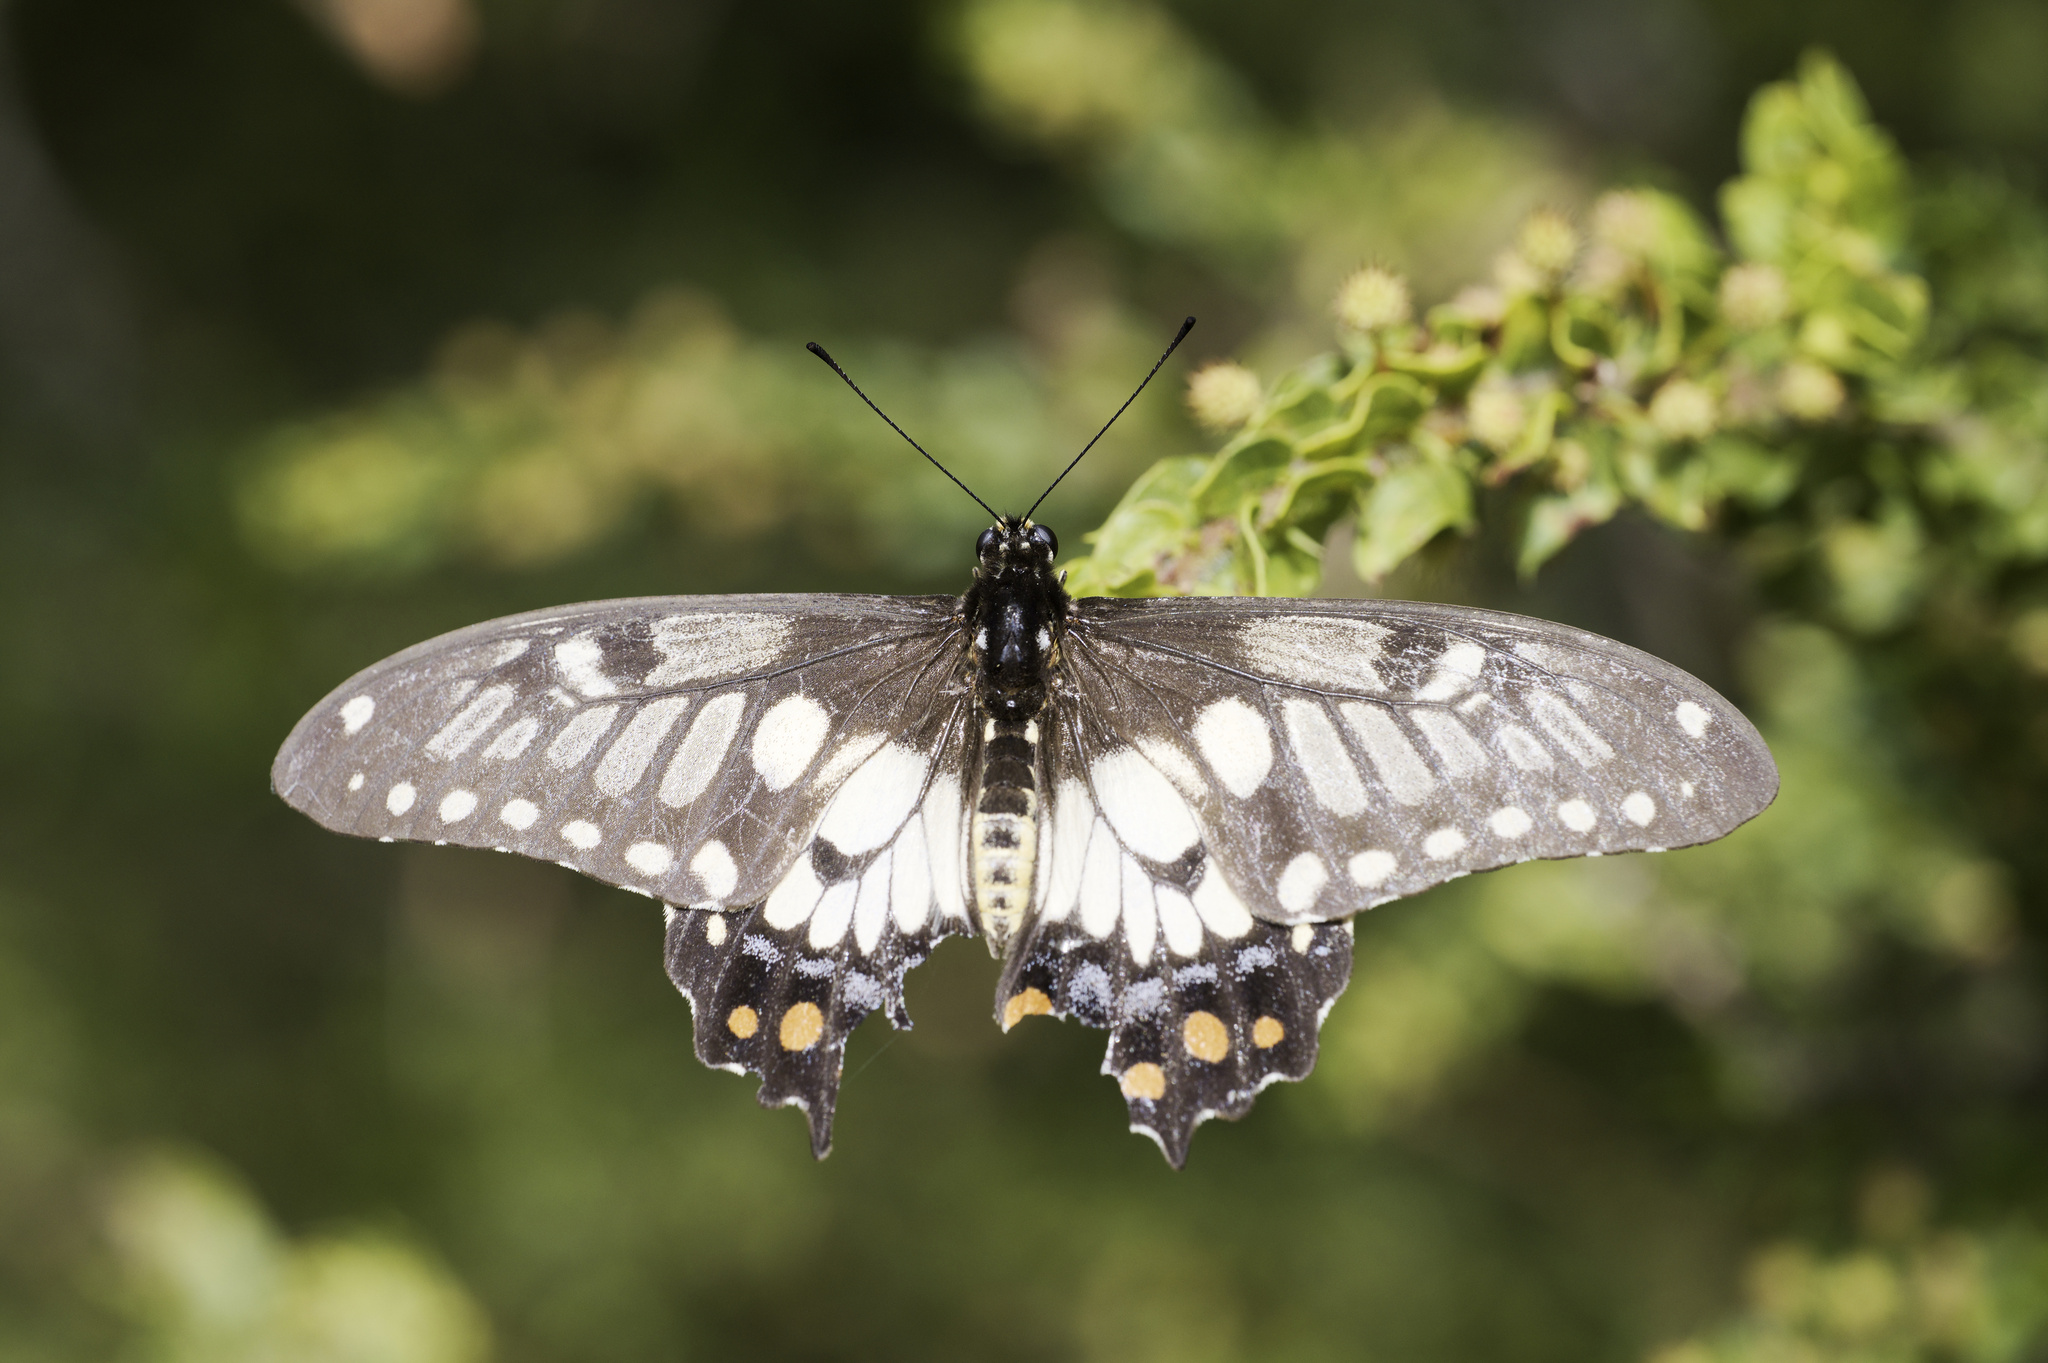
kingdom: Animalia
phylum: Arthropoda
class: Insecta
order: Lepidoptera
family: Papilionidae
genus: Papilio
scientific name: Papilio anactus
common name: Dingy swallowtail
